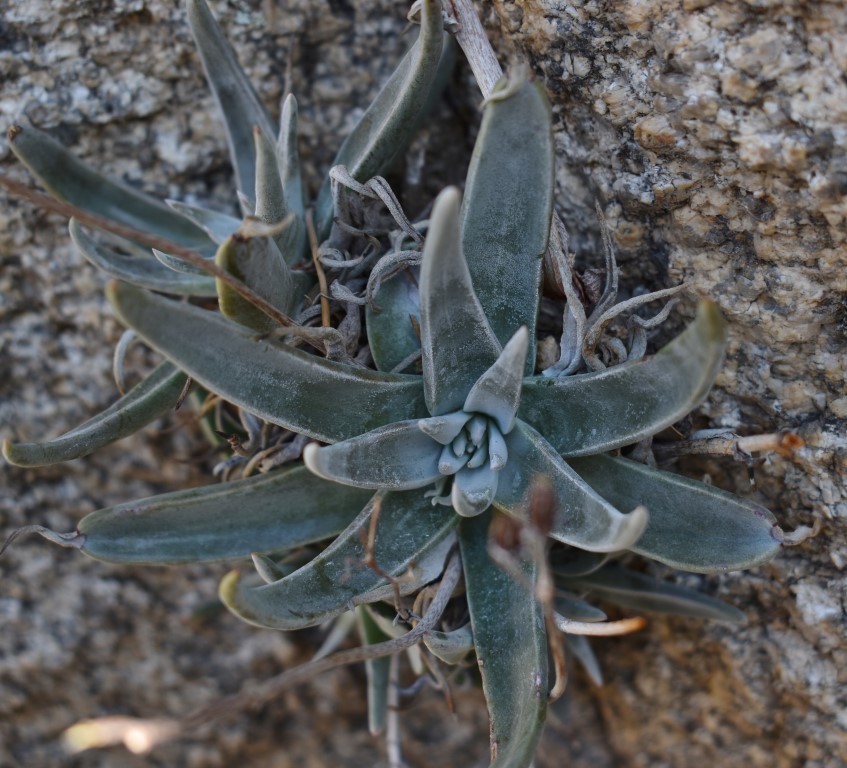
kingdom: Plantae
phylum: Tracheophyta
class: Magnoliopsida
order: Saxifragales
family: Crassulaceae
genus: Dudleya
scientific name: Dudleya saxosa
